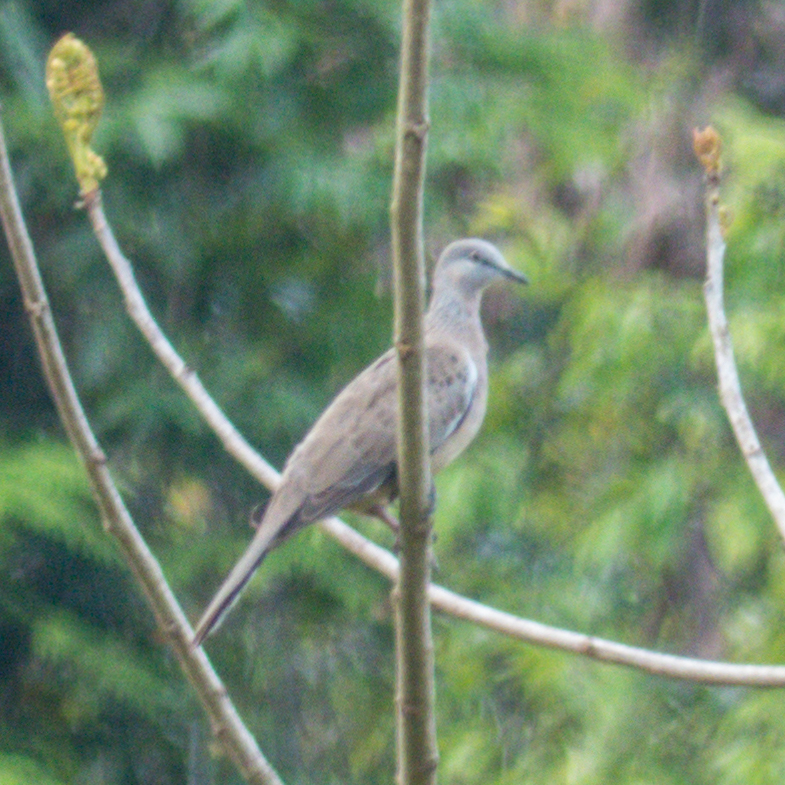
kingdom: Animalia
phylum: Chordata
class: Aves
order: Columbiformes
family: Columbidae
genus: Spilopelia
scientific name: Spilopelia chinensis
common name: Spotted dove
